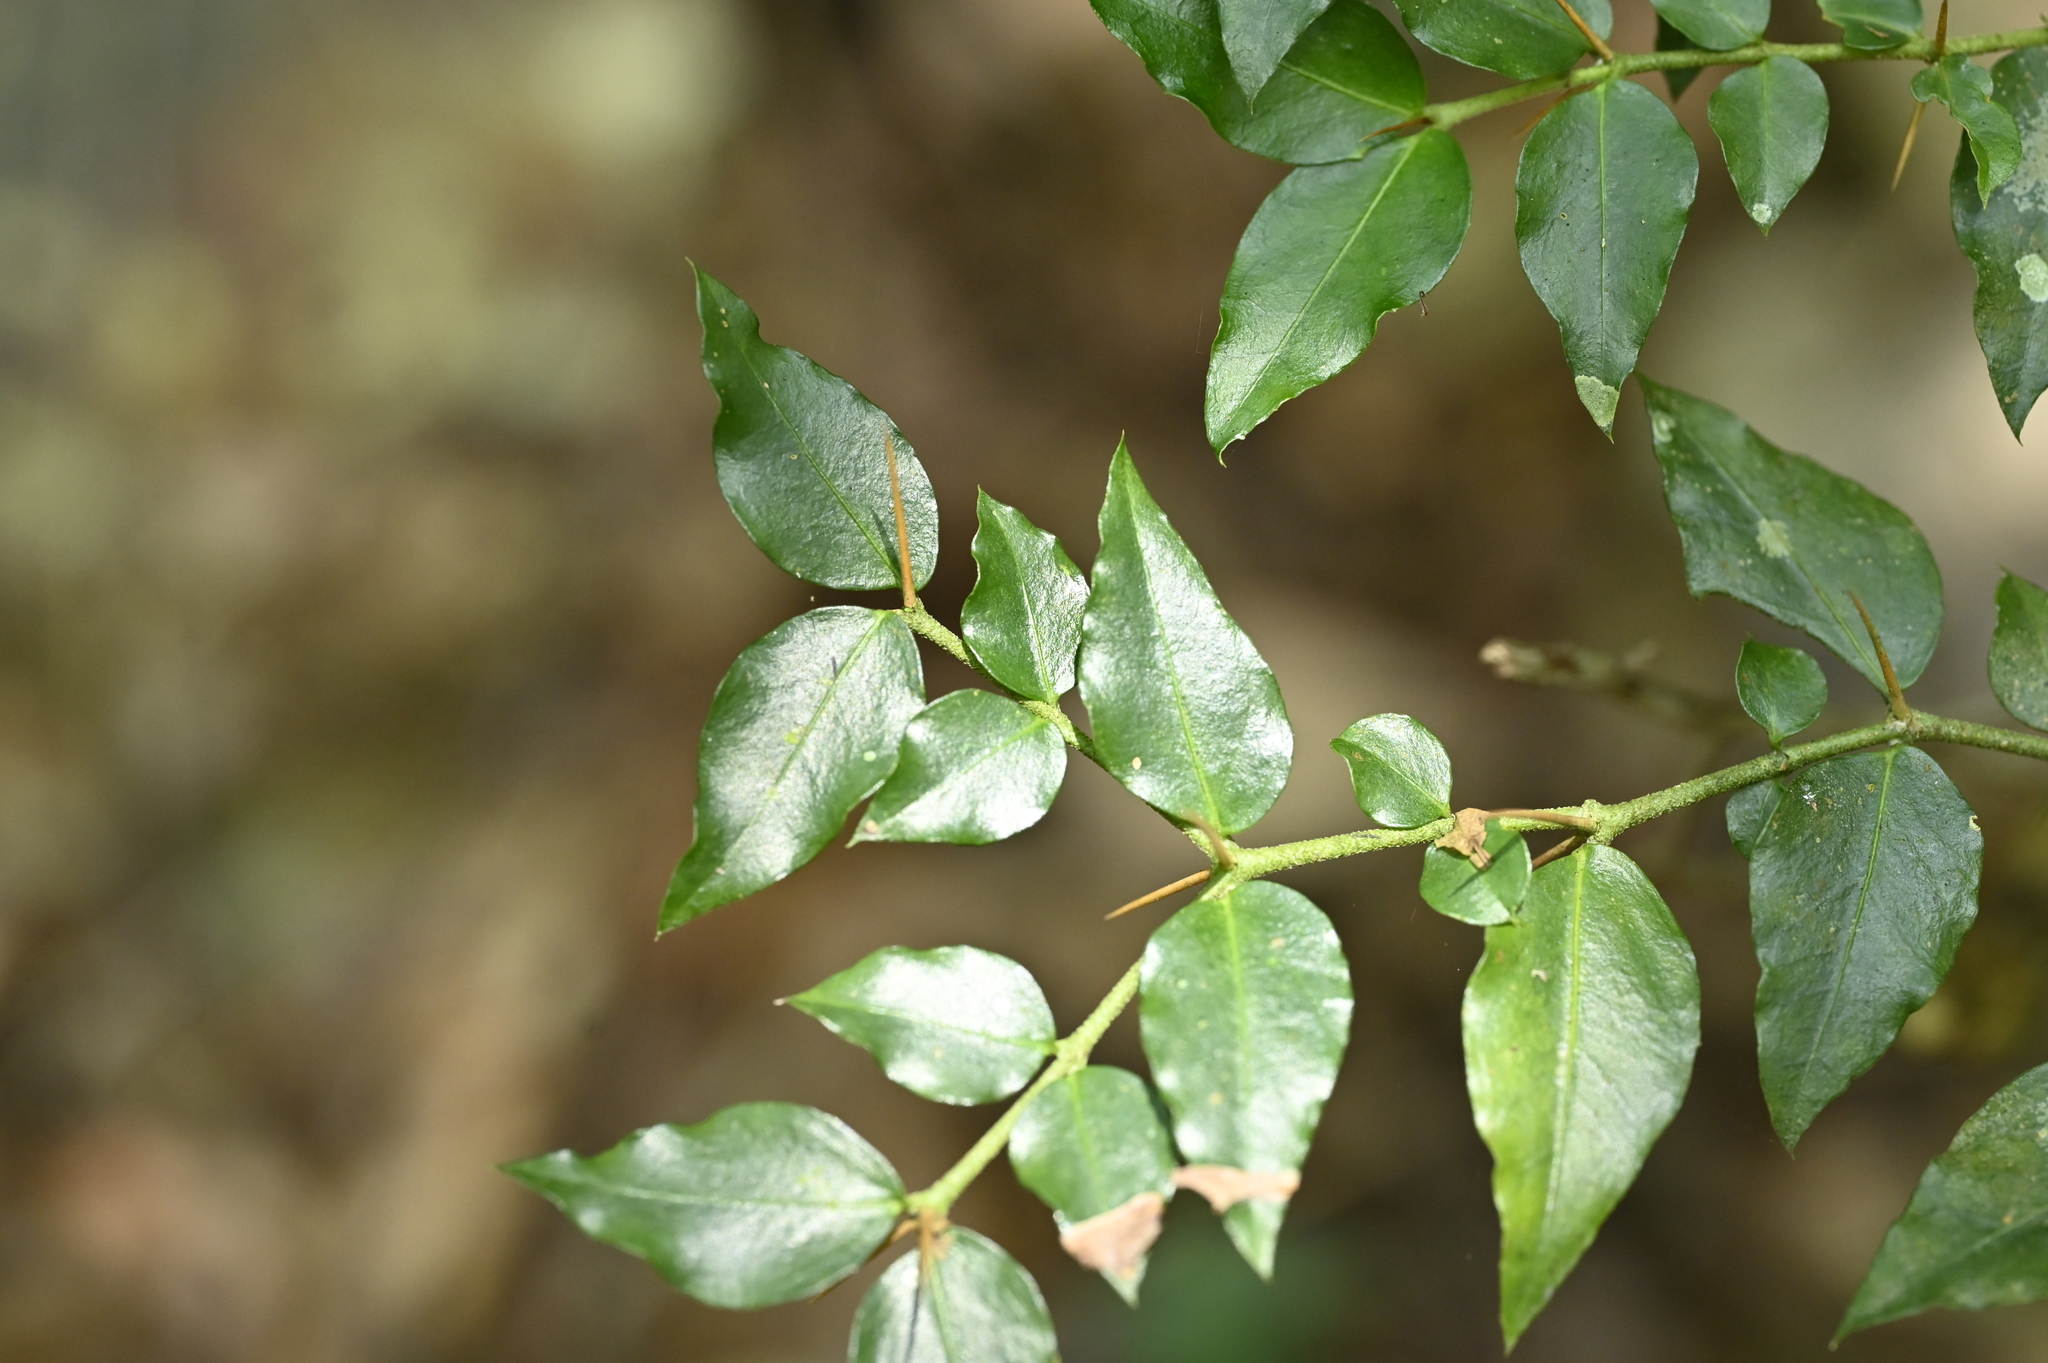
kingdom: Plantae
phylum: Tracheophyta
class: Magnoliopsida
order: Gentianales
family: Rubiaceae
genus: Damnacanthus
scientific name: Damnacanthus indicus
